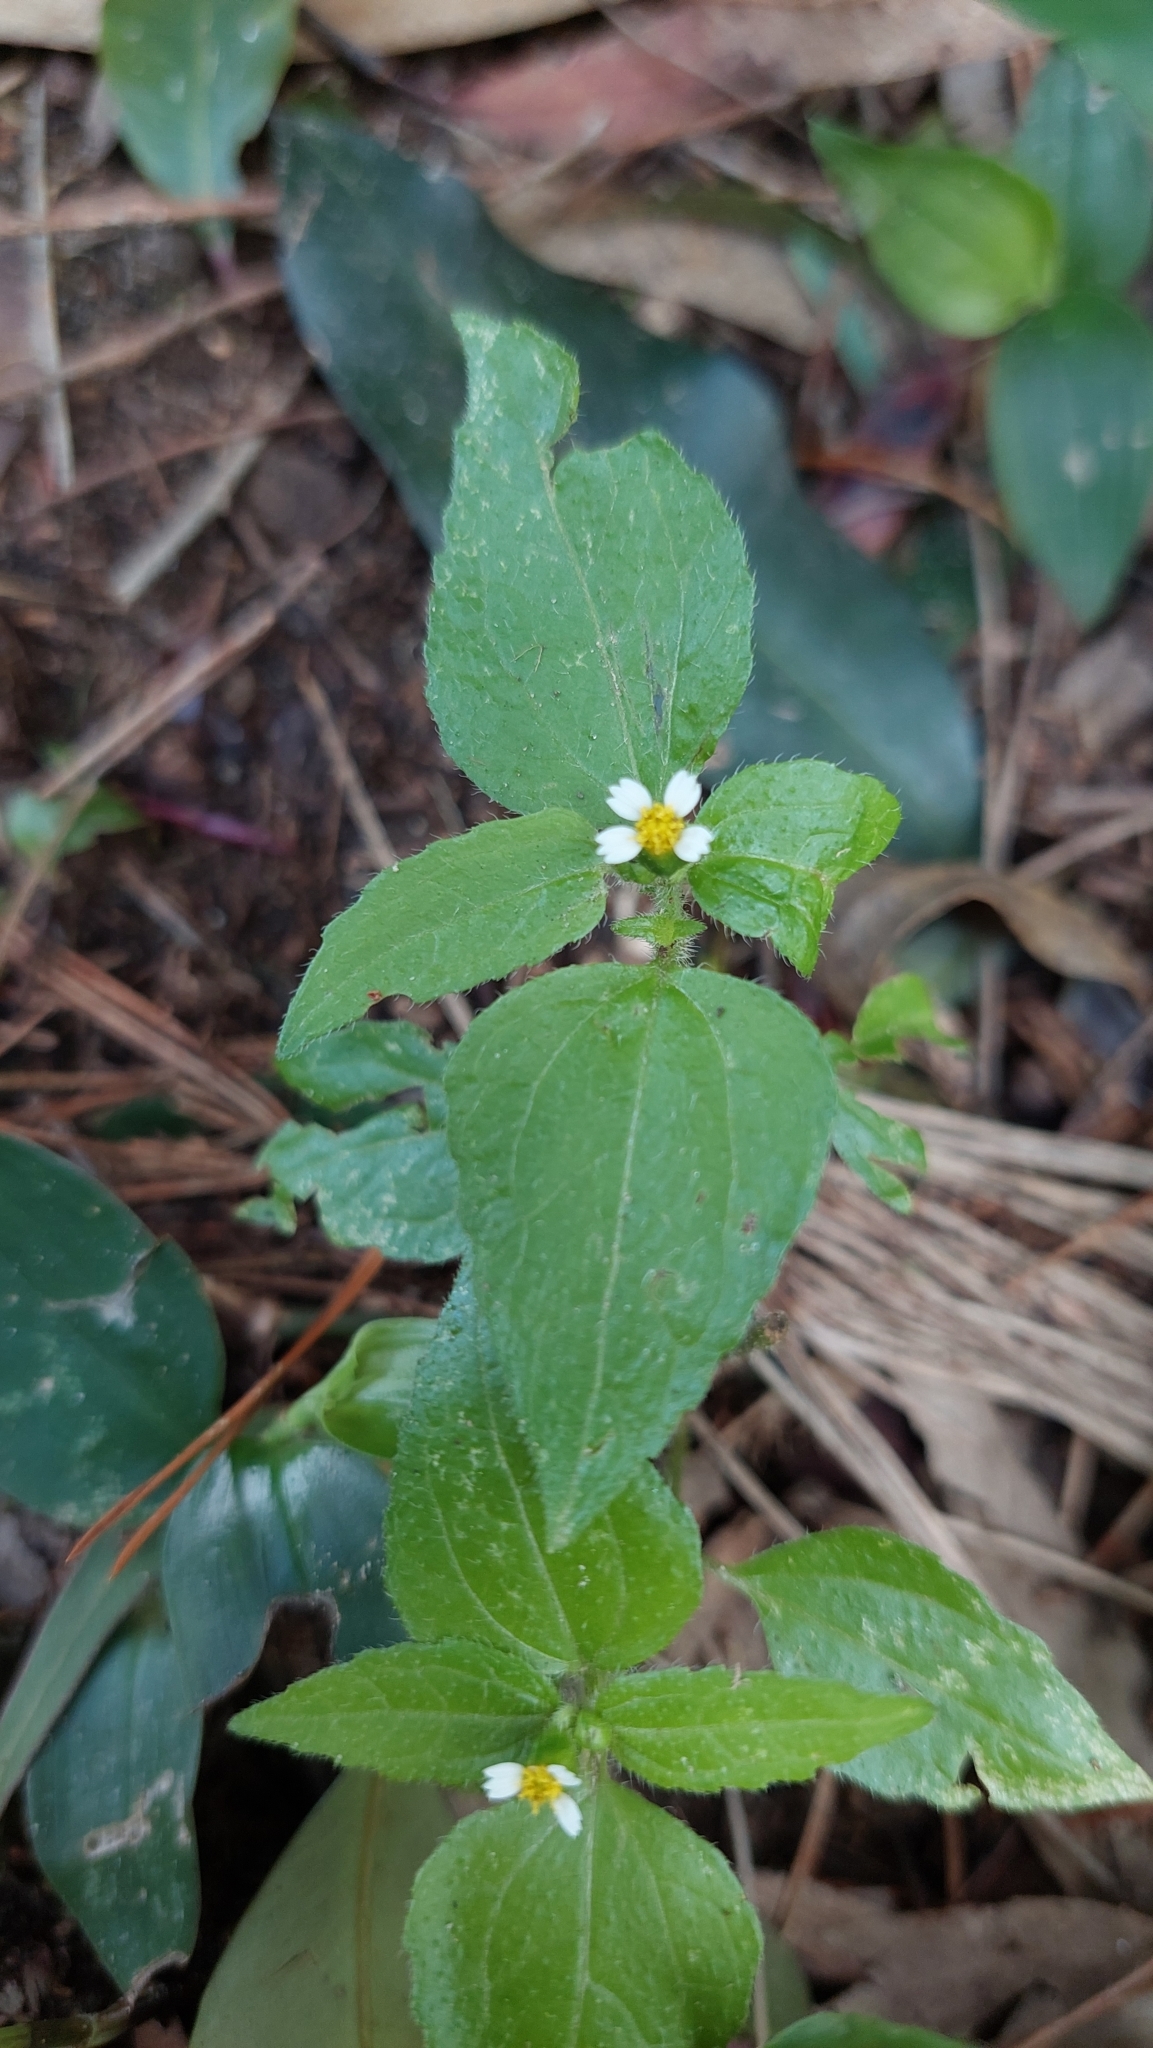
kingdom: Plantae
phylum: Tracheophyta
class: Magnoliopsida
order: Asterales
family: Asteraceae
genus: Galinsoga
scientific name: Galinsoga quadriradiata
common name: Shaggy soldier
